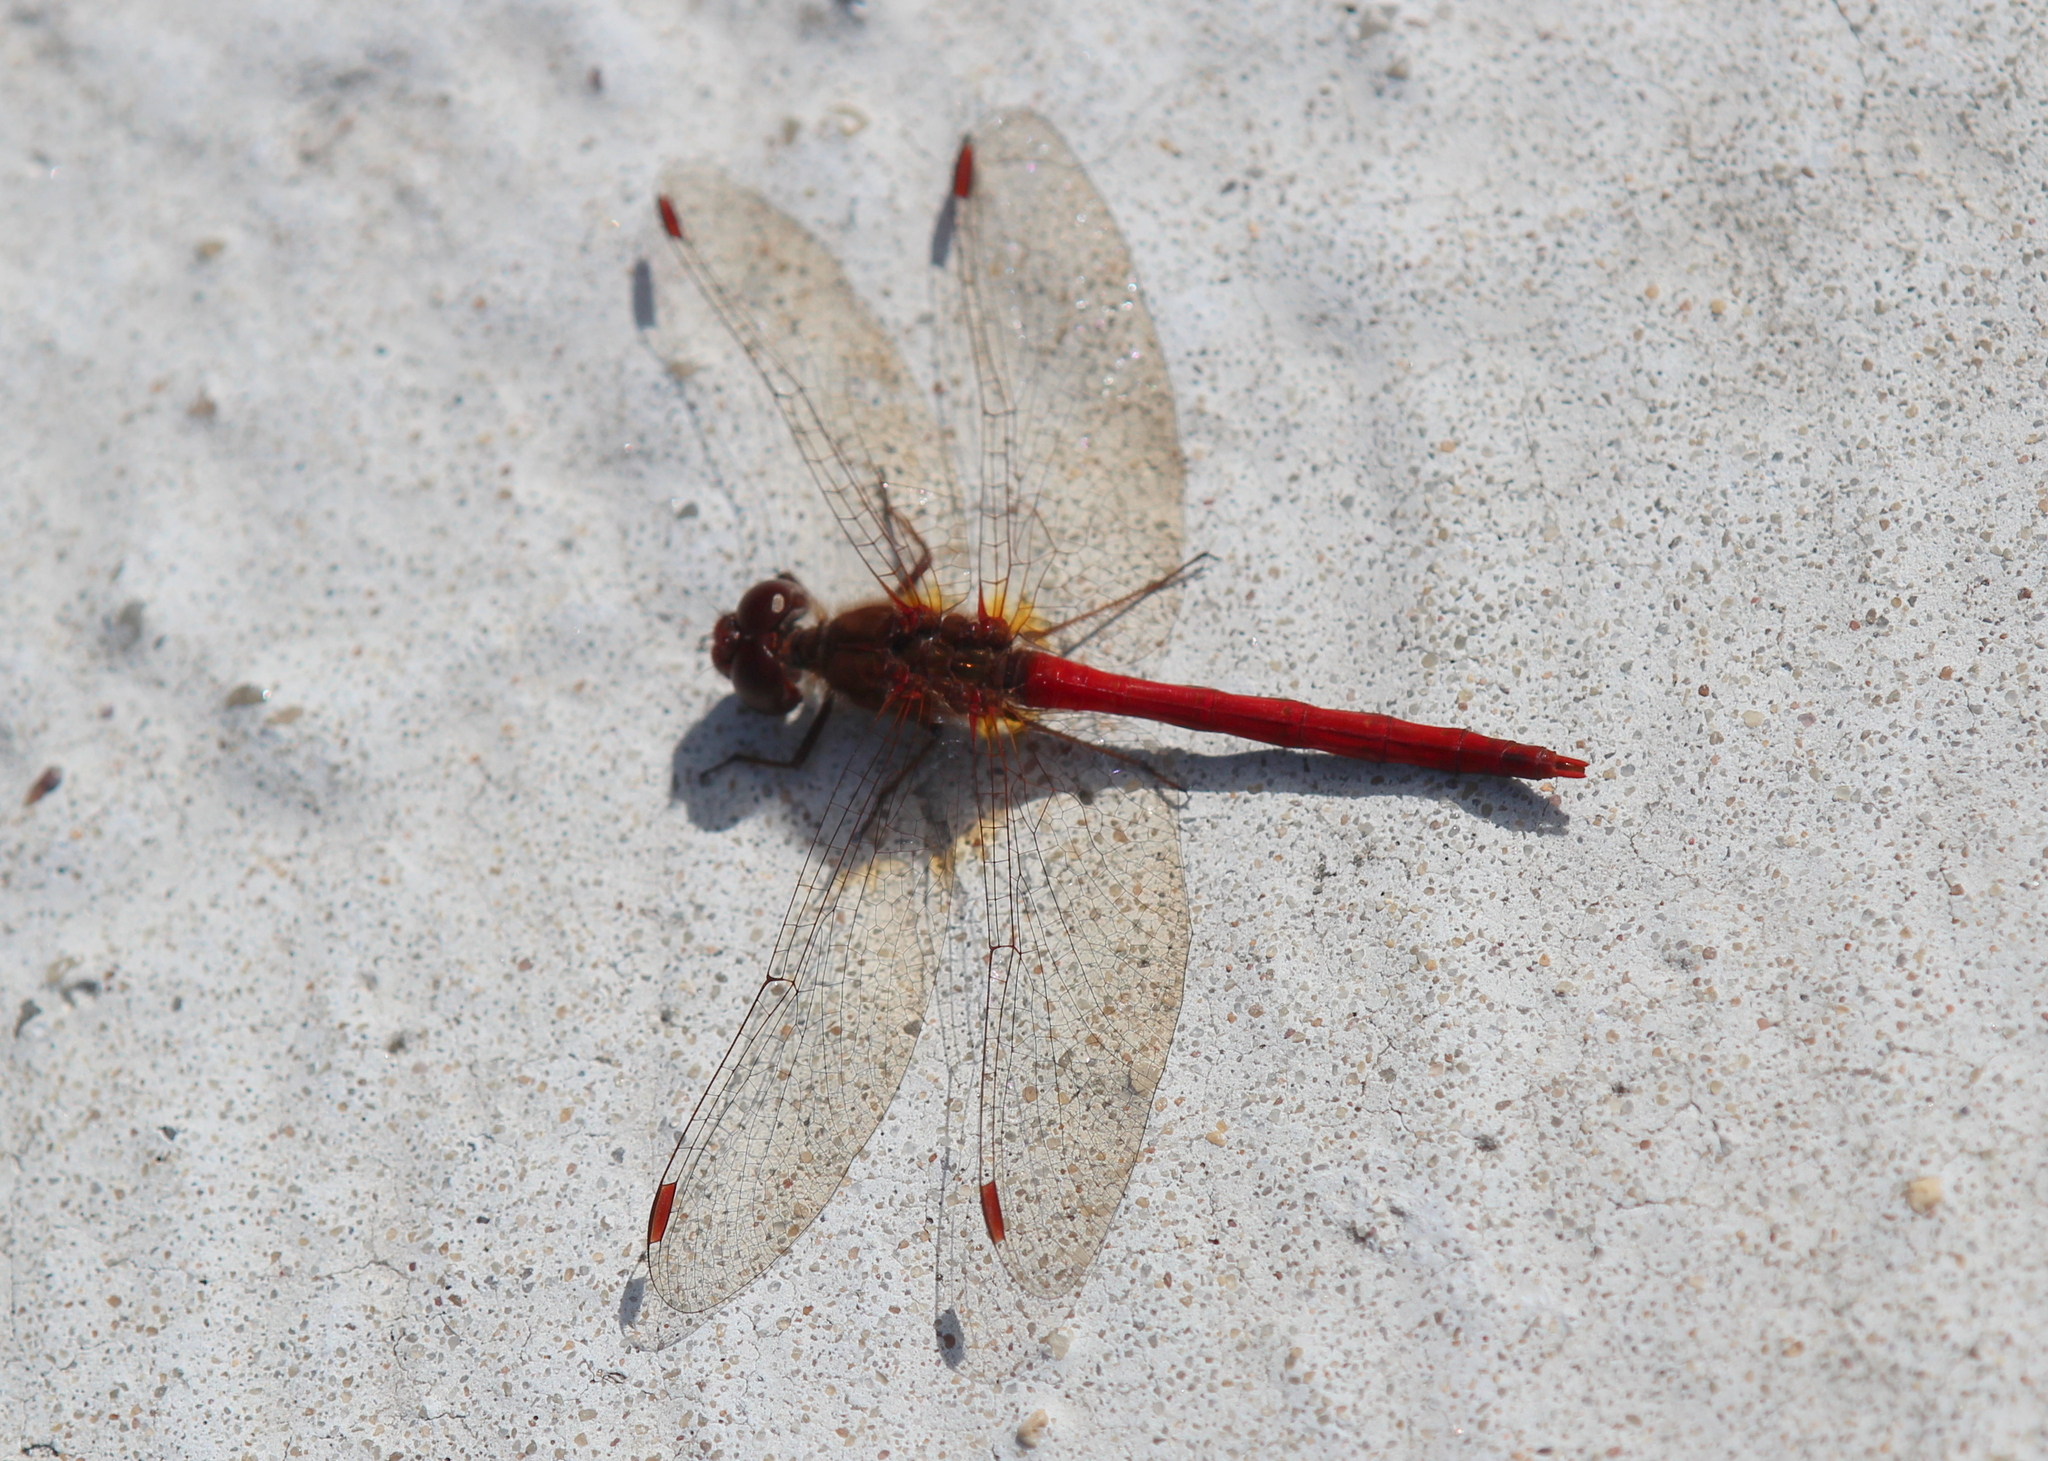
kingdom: Animalia
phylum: Arthropoda
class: Insecta
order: Odonata
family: Libellulidae
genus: Sympetrum
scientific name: Sympetrum vicinum
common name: Autumn meadowhawk
